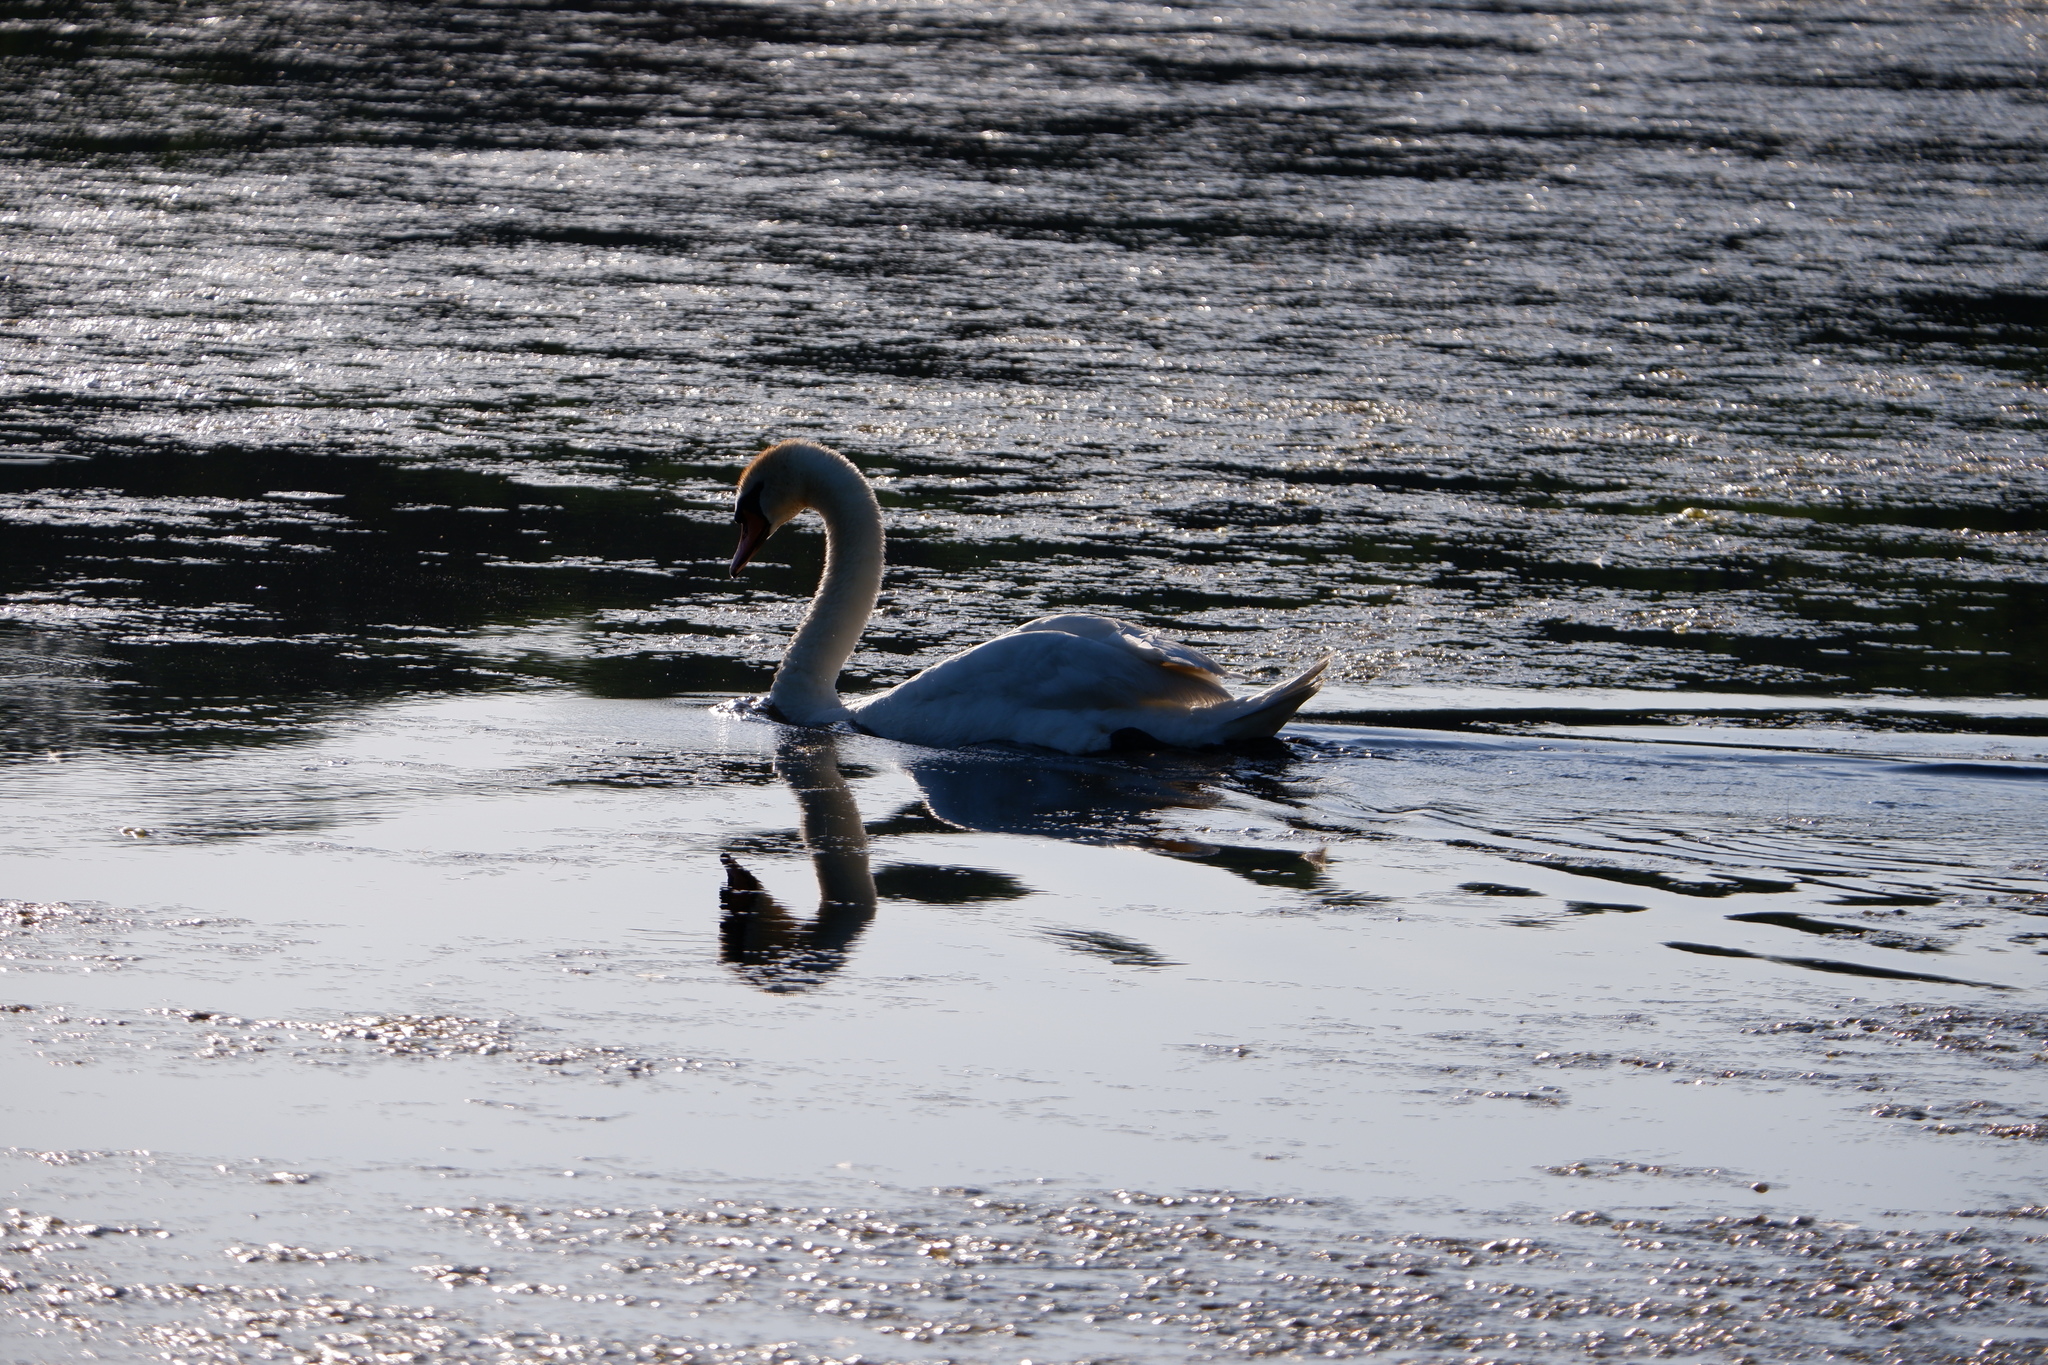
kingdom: Animalia
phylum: Chordata
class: Aves
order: Anseriformes
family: Anatidae
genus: Cygnus
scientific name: Cygnus olor
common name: Mute swan
